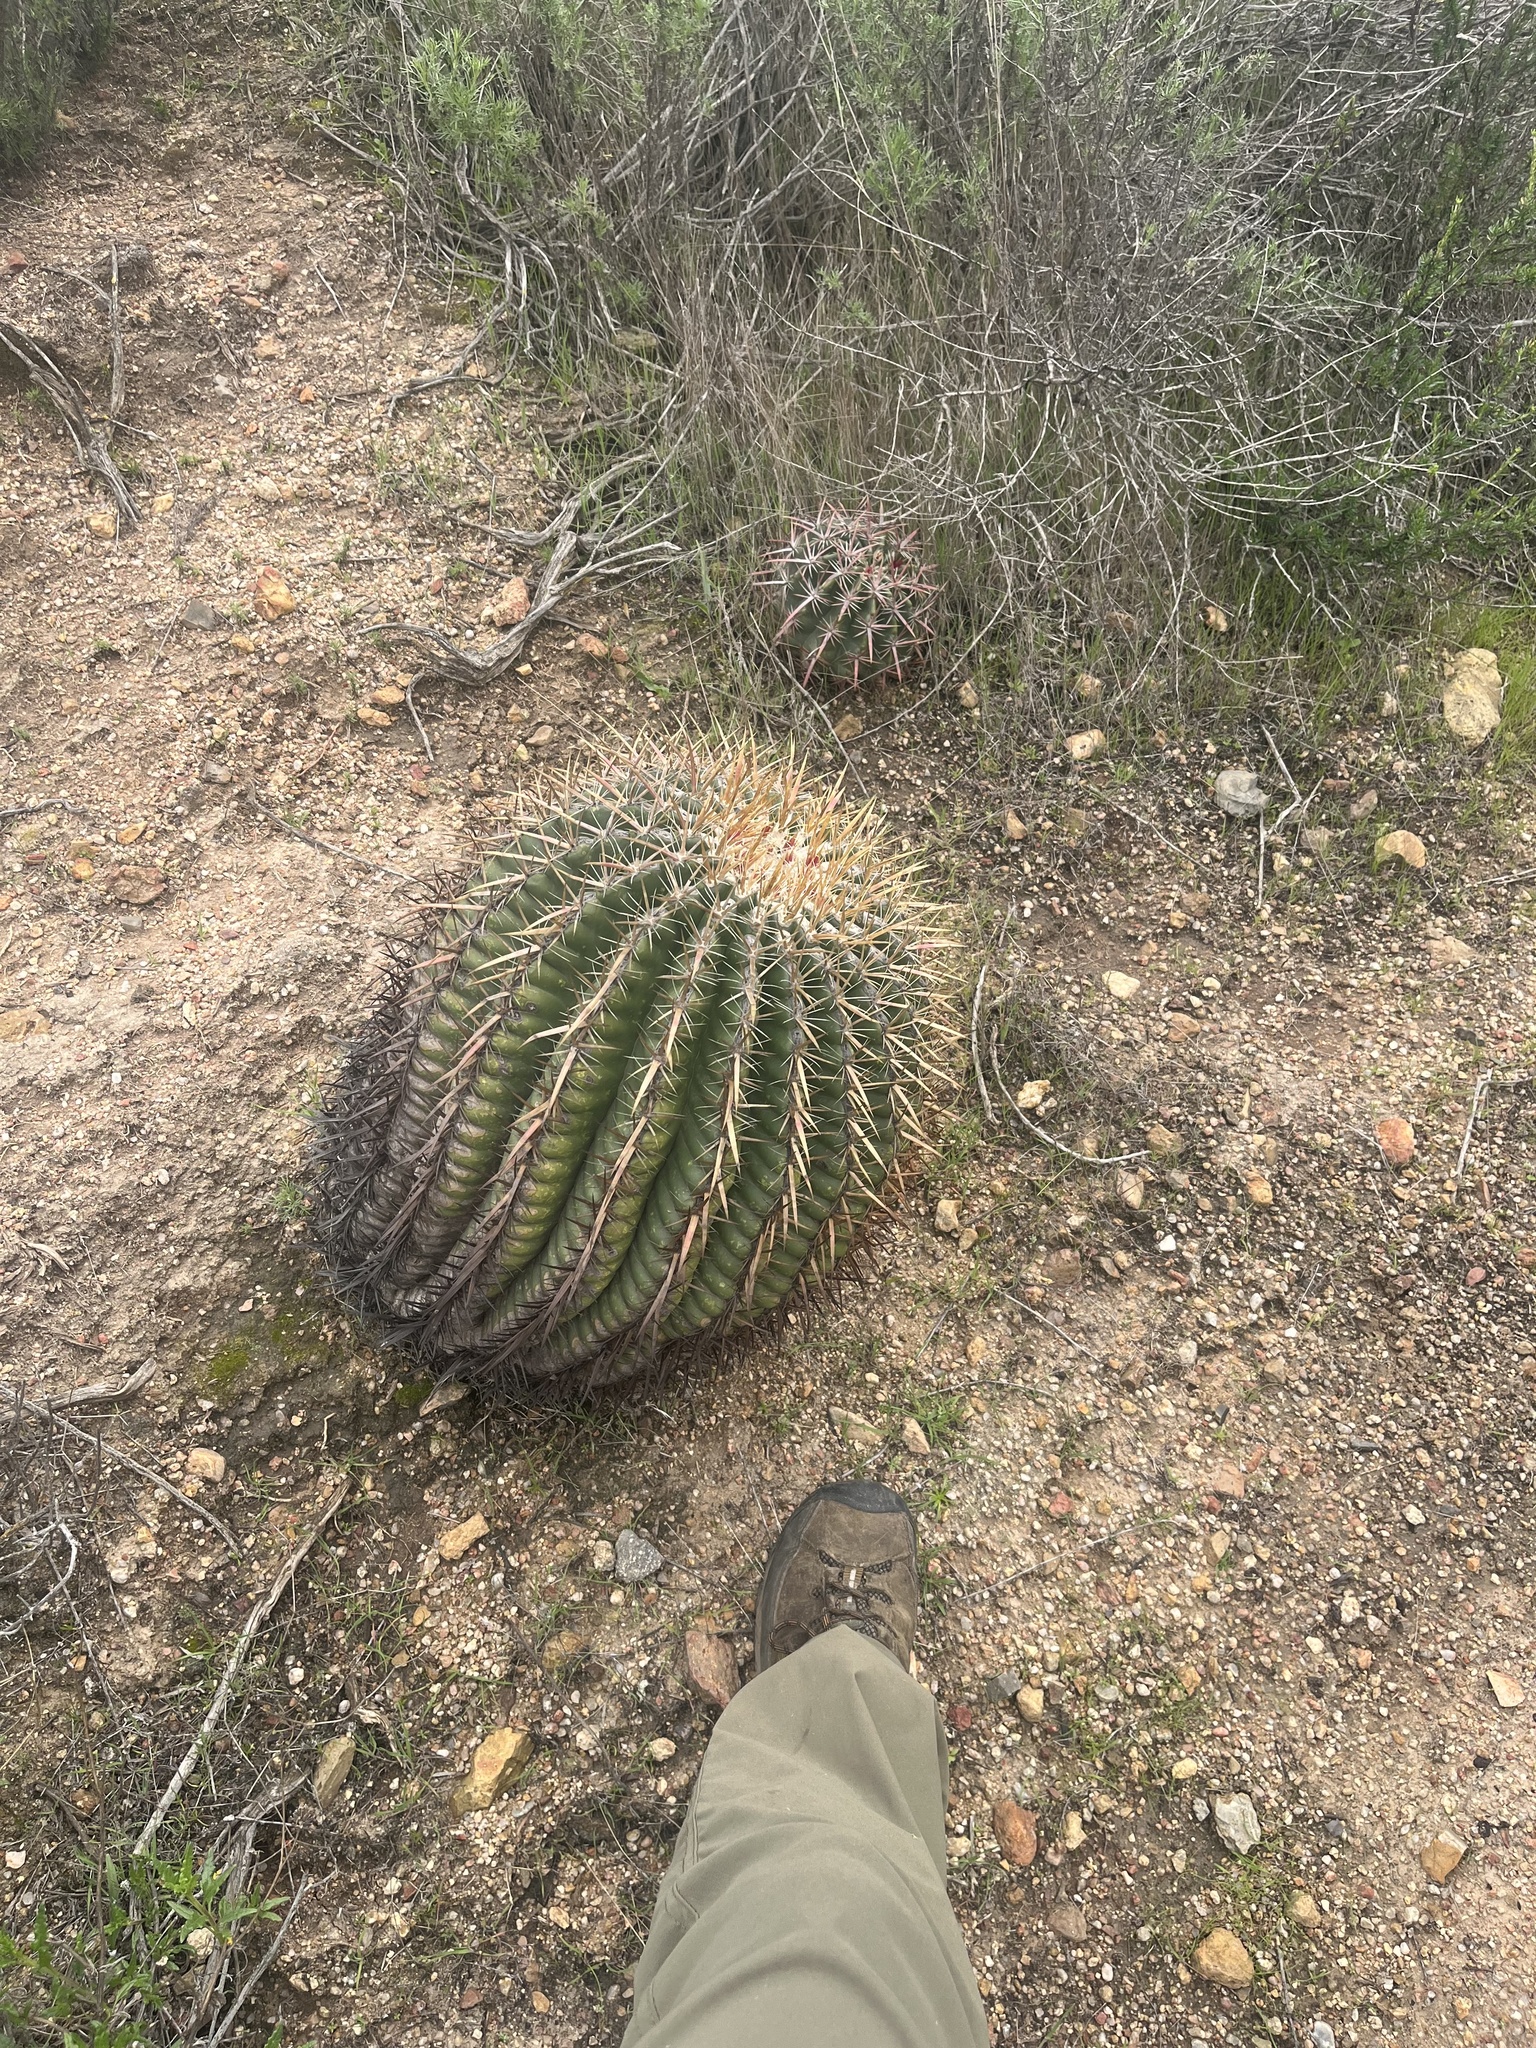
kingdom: Plantae
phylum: Tracheophyta
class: Magnoliopsida
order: Caryophyllales
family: Cactaceae
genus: Ferocactus
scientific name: Ferocactus viridescens
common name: San diego barrel cactus
